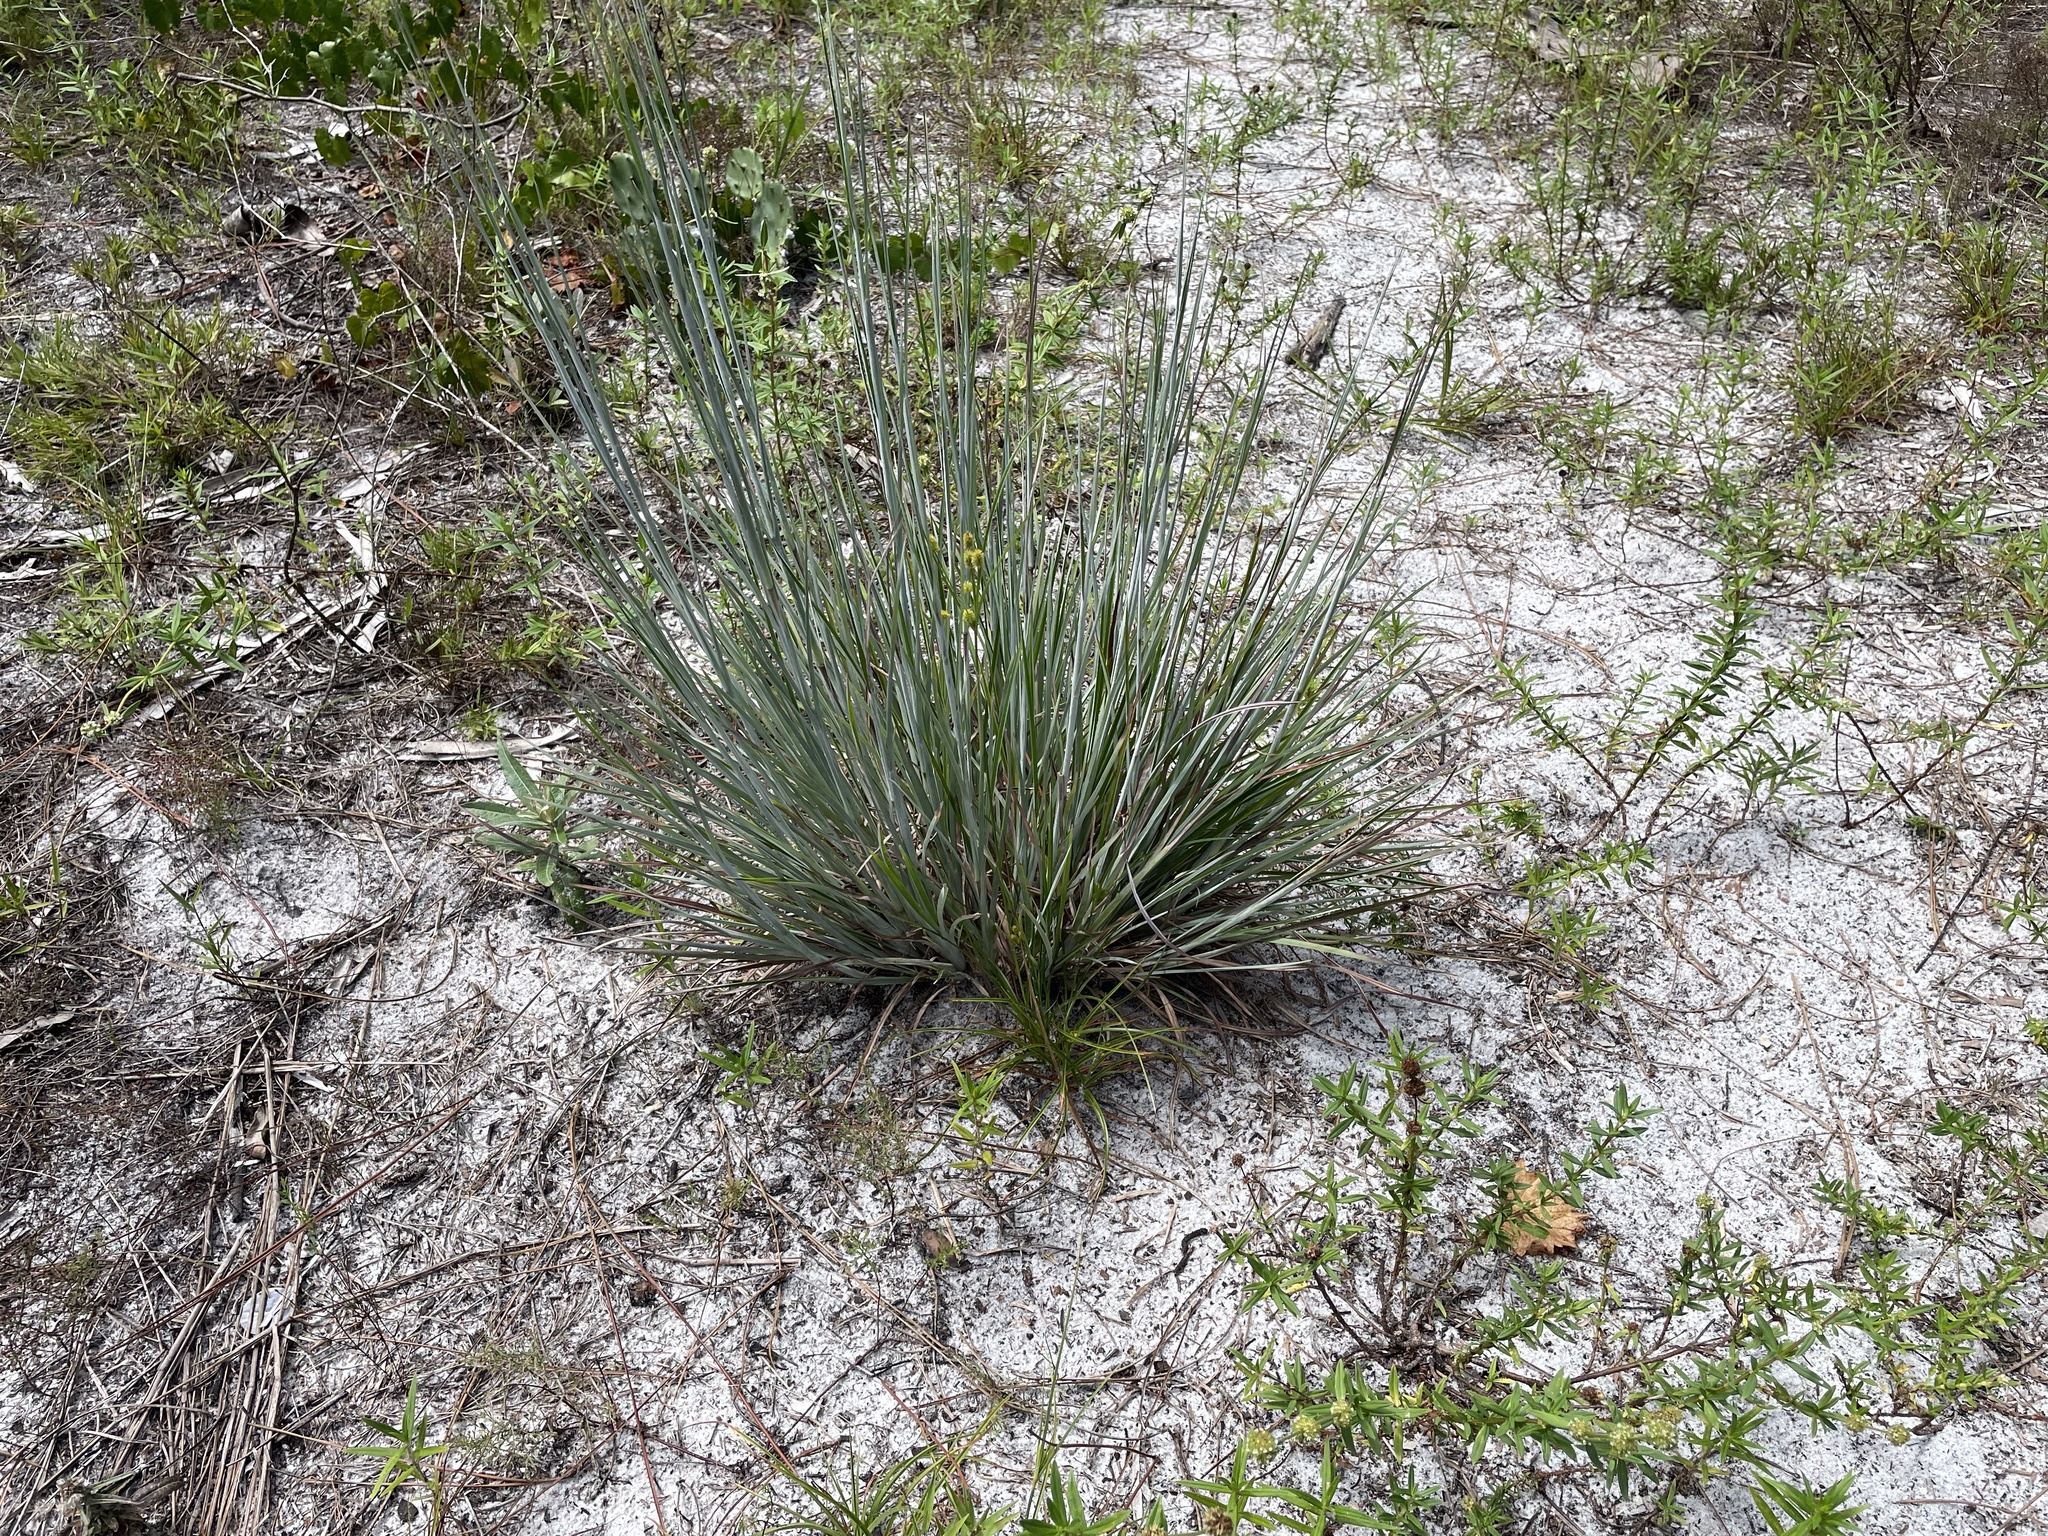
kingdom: Plantae
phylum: Tracheophyta
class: Liliopsida
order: Poales
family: Poaceae
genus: Andropogon
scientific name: Andropogon capillipes
